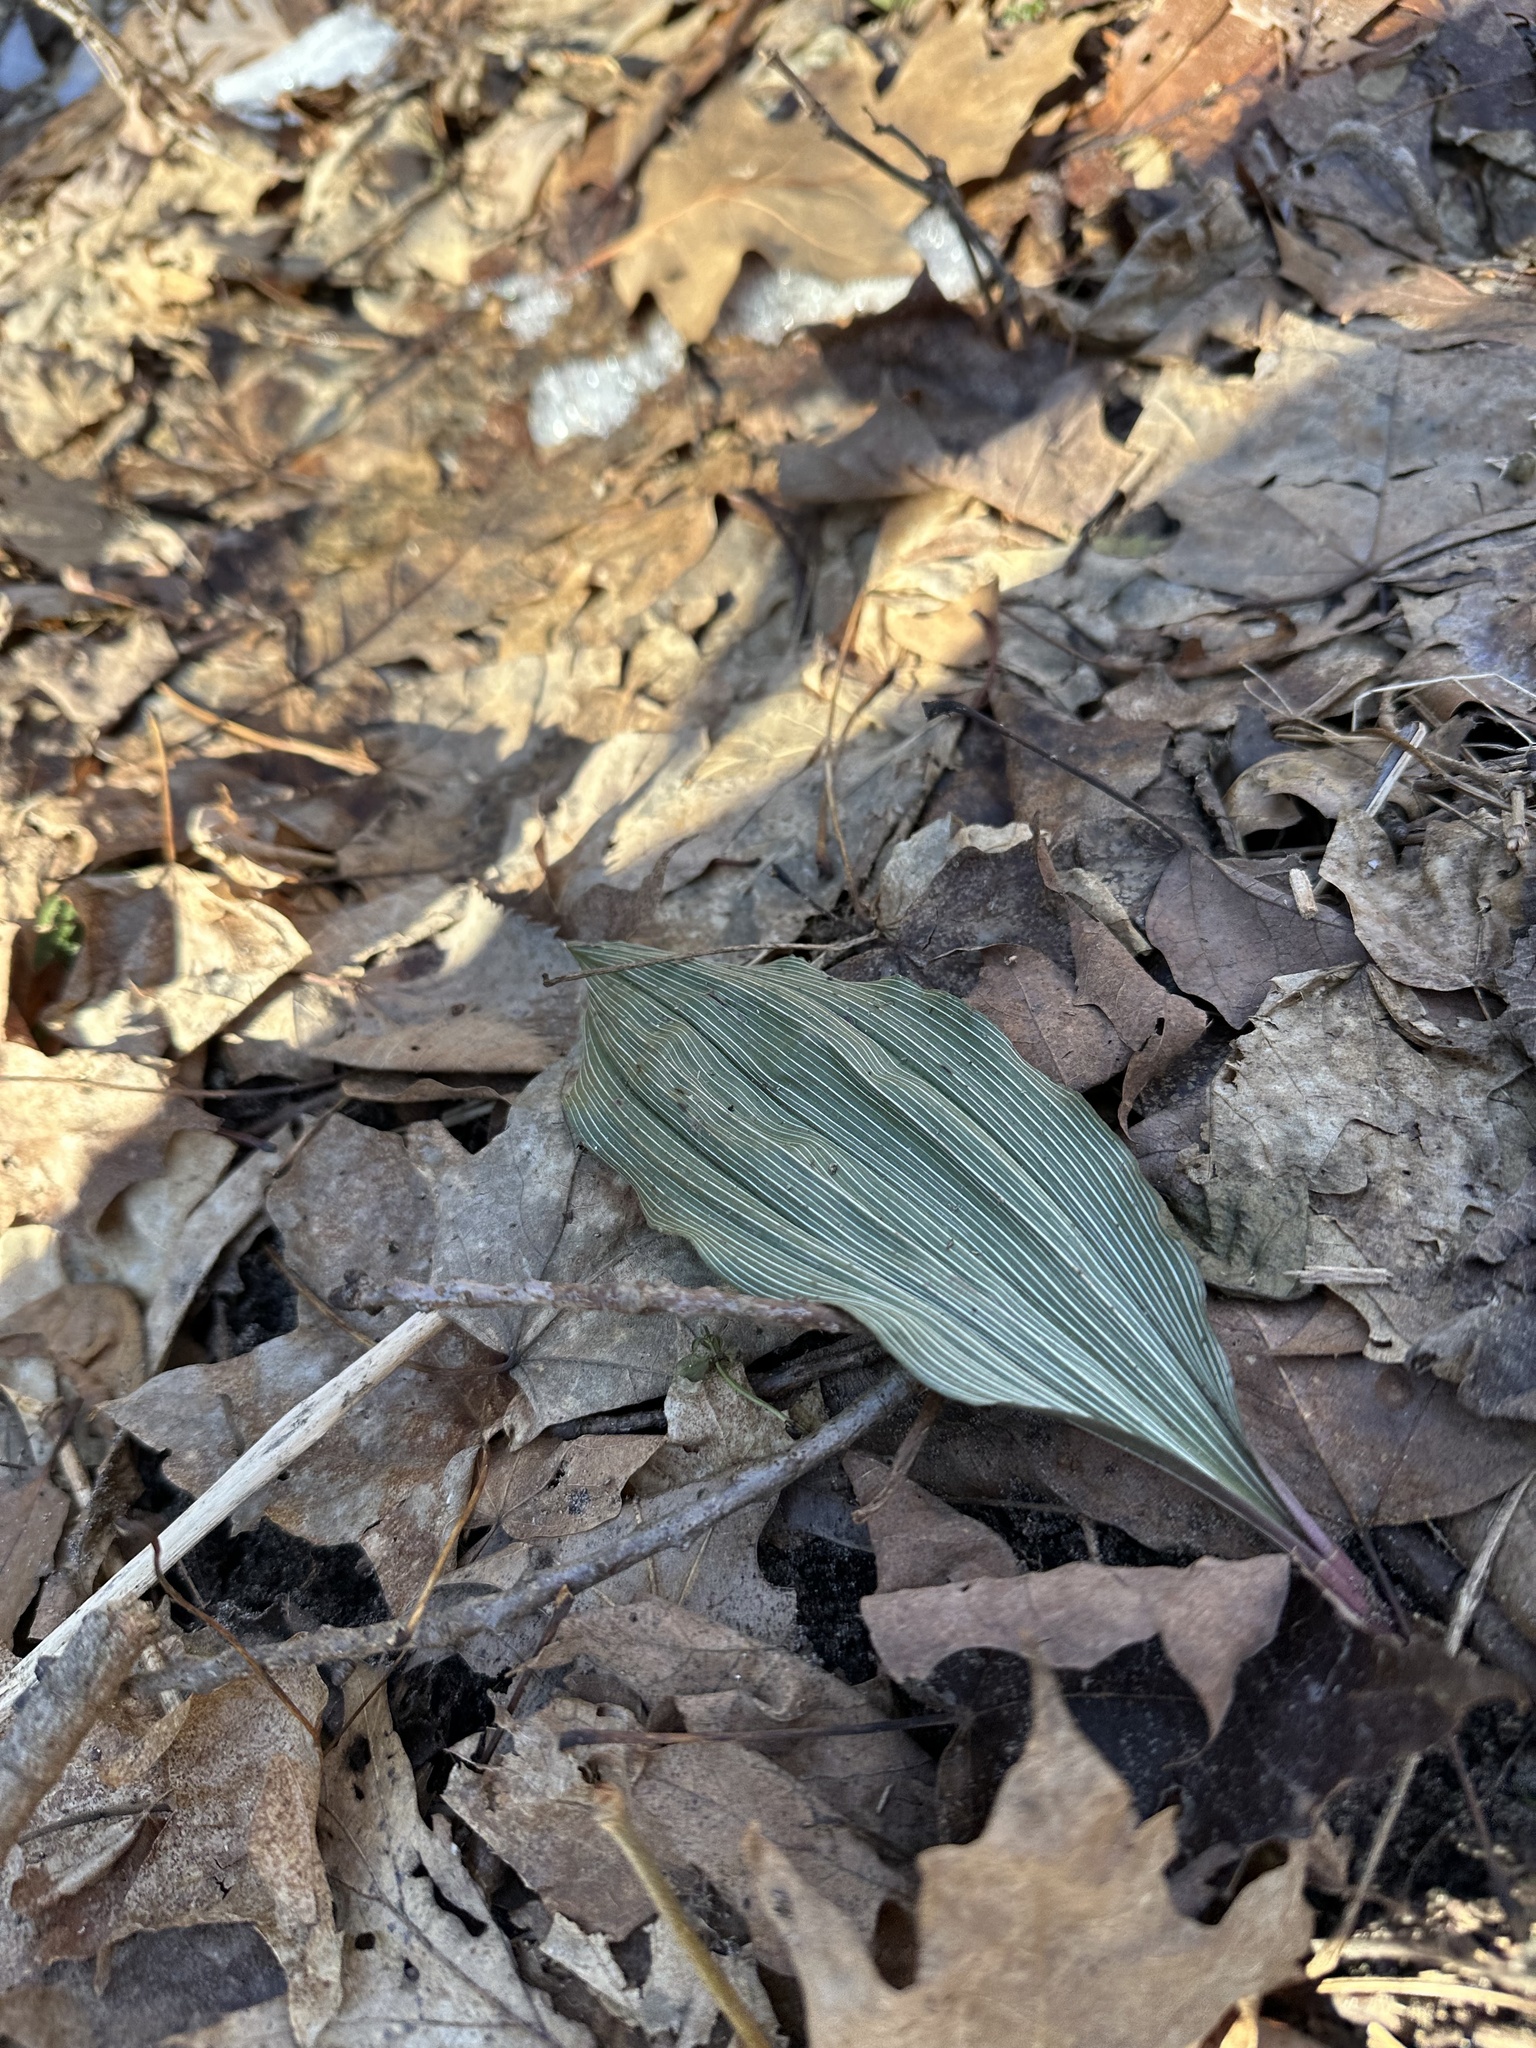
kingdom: Plantae
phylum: Tracheophyta
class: Liliopsida
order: Asparagales
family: Orchidaceae
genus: Aplectrum
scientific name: Aplectrum hyemale
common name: Adam-and-eve
